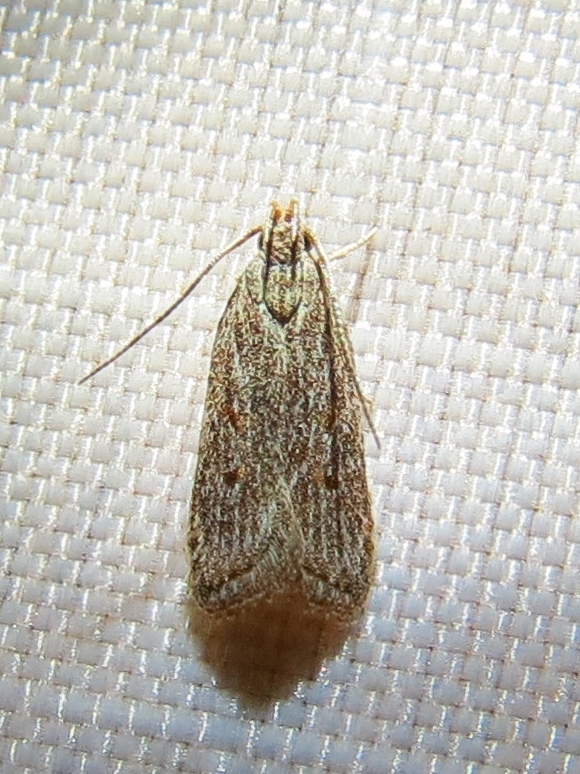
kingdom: Animalia
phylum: Arthropoda
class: Insecta
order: Lepidoptera
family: Gelechiidae
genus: Helcystogramma
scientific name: Helcystogramma chambersella
